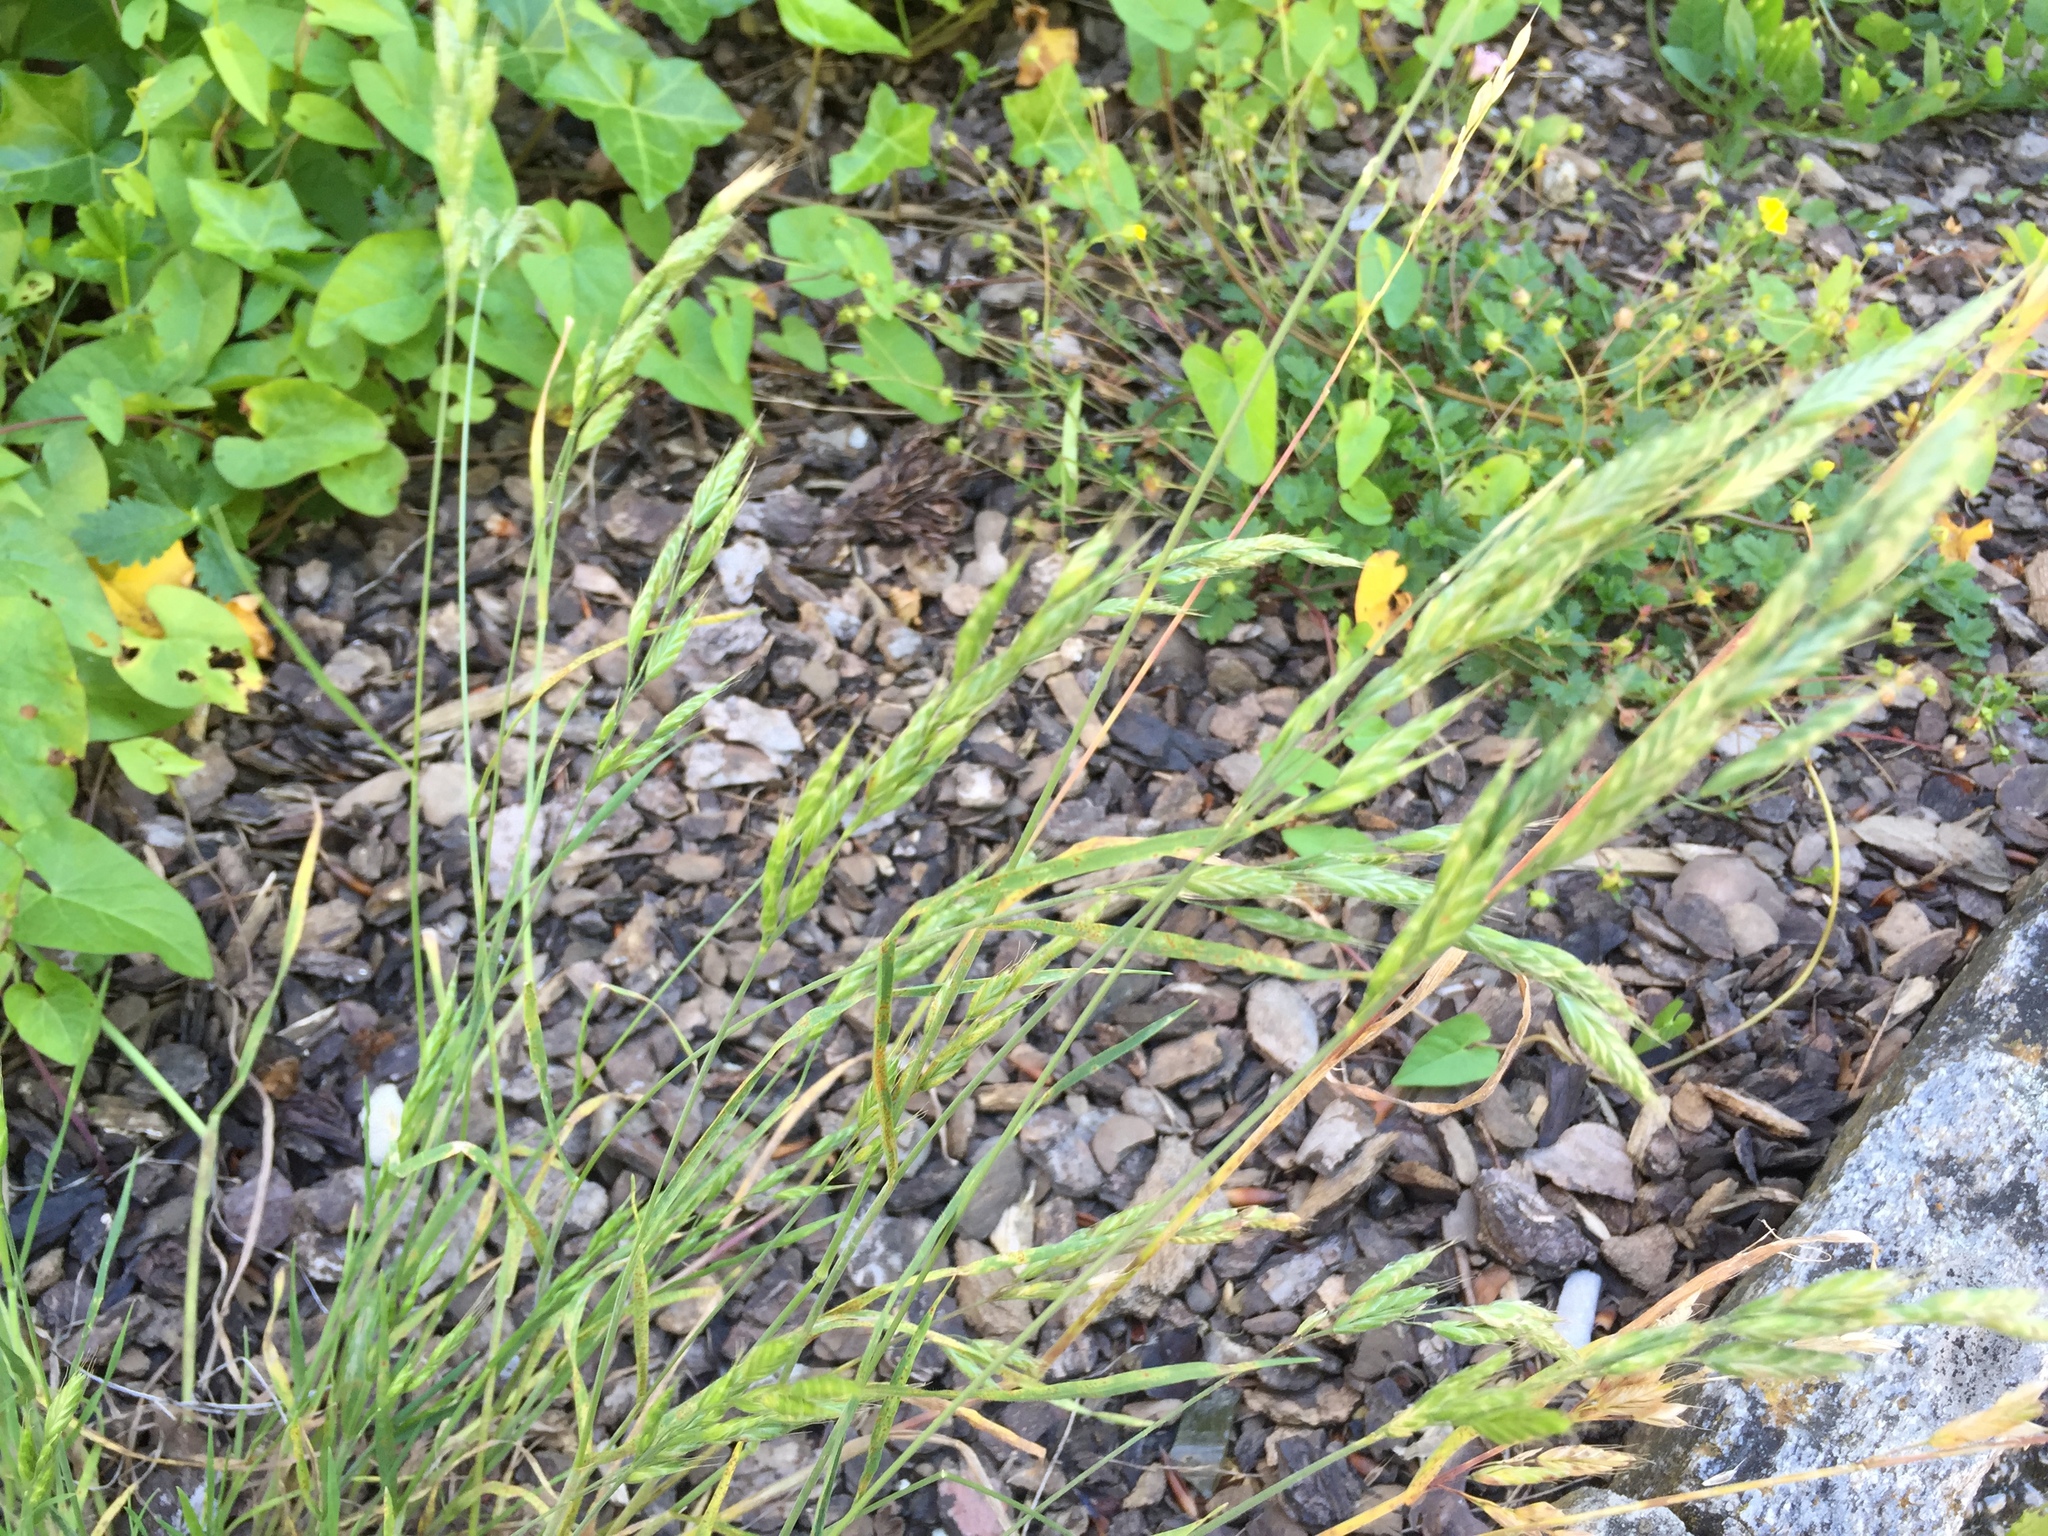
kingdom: Plantae
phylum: Tracheophyta
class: Liliopsida
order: Poales
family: Poaceae
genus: Bromus
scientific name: Bromus hordeaceus
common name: Soft brome
